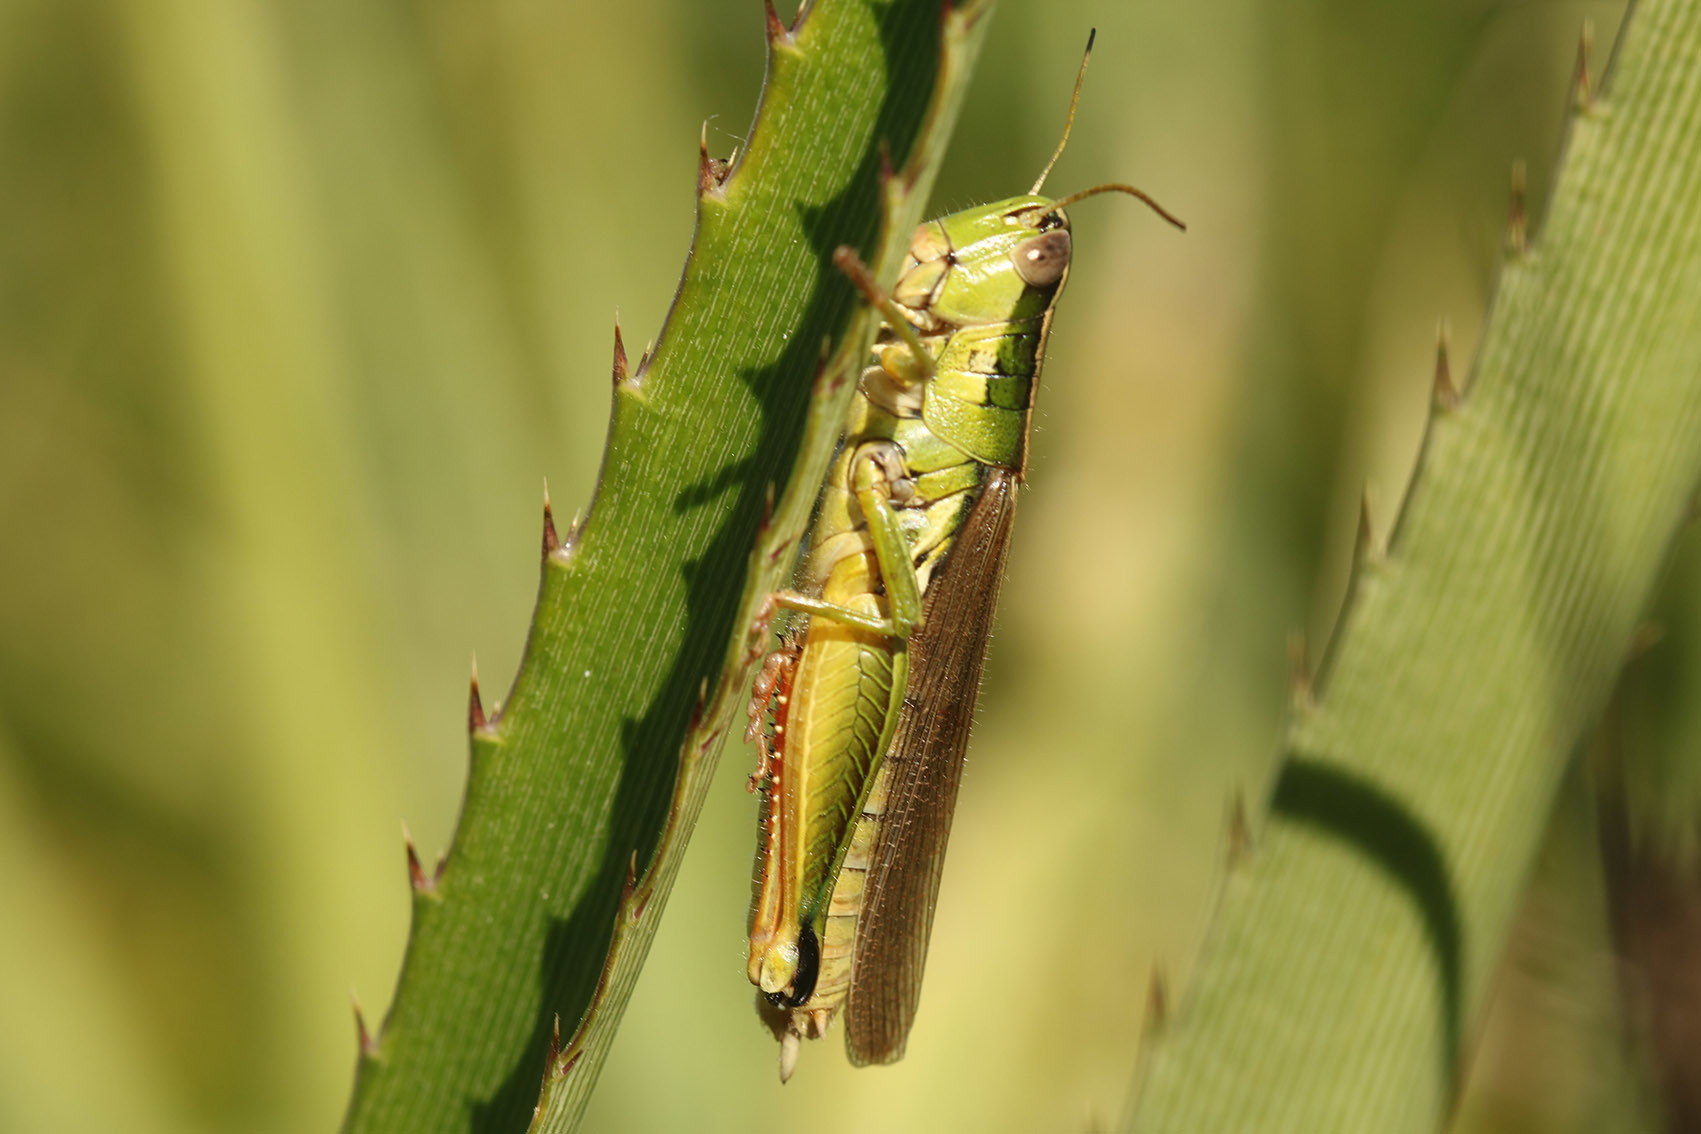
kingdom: Animalia
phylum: Arthropoda
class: Insecta
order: Orthoptera
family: Acrididae
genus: Scotussa
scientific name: Scotussa cliens
